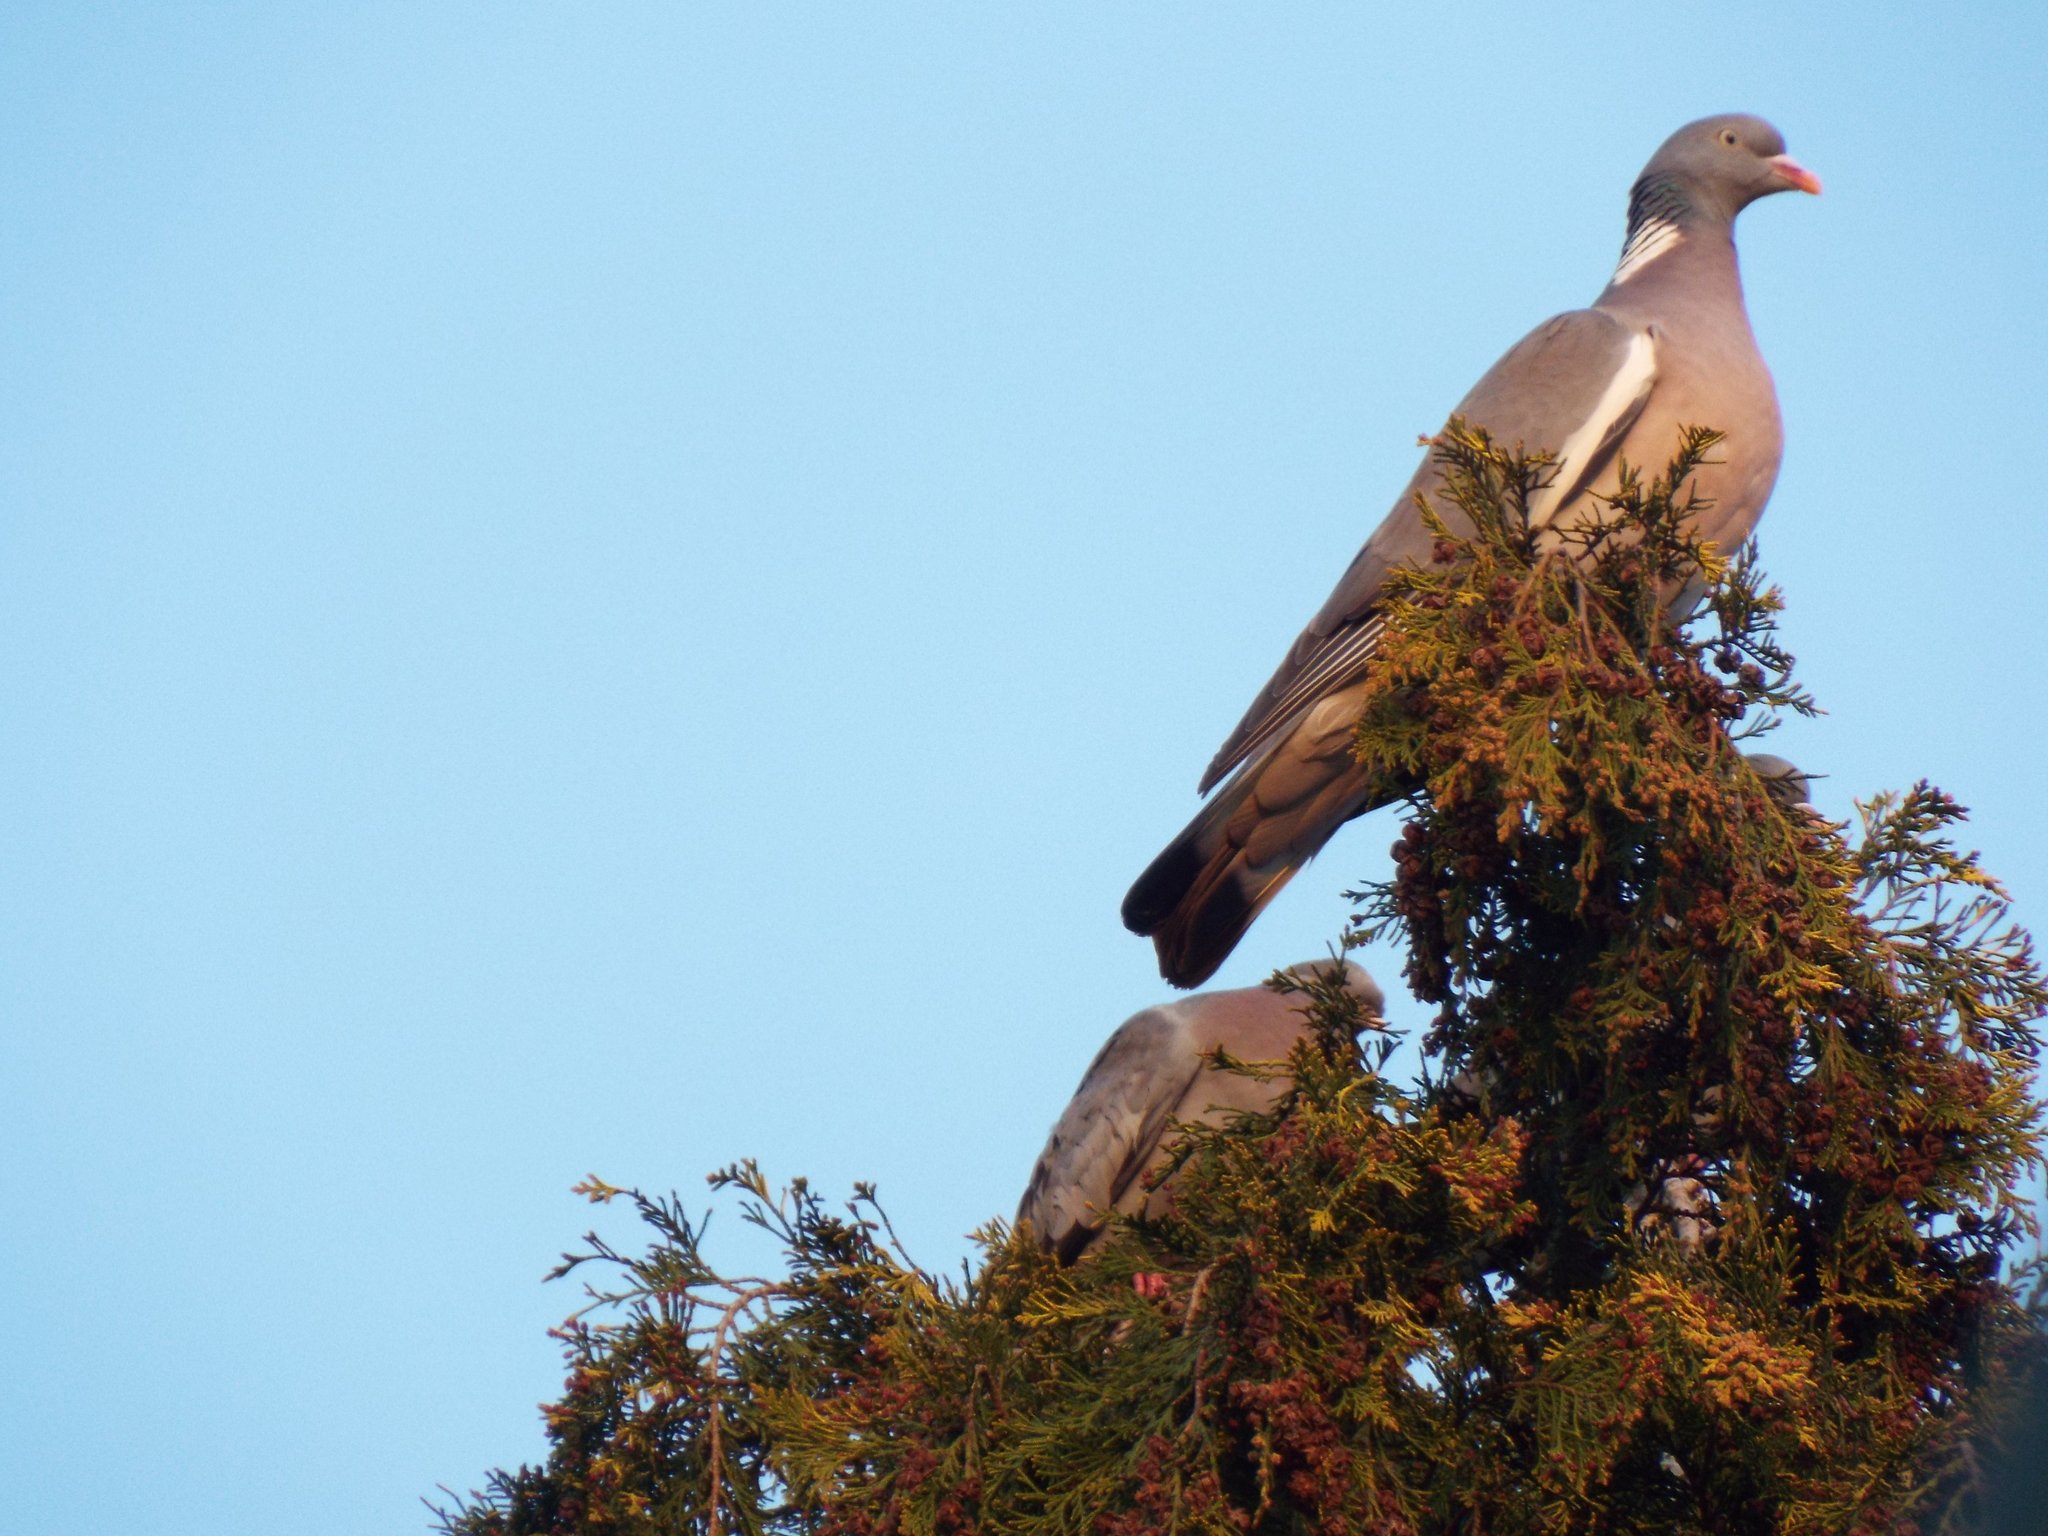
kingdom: Animalia
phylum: Chordata
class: Aves
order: Columbiformes
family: Columbidae
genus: Columba
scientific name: Columba palumbus
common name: Common wood pigeon
